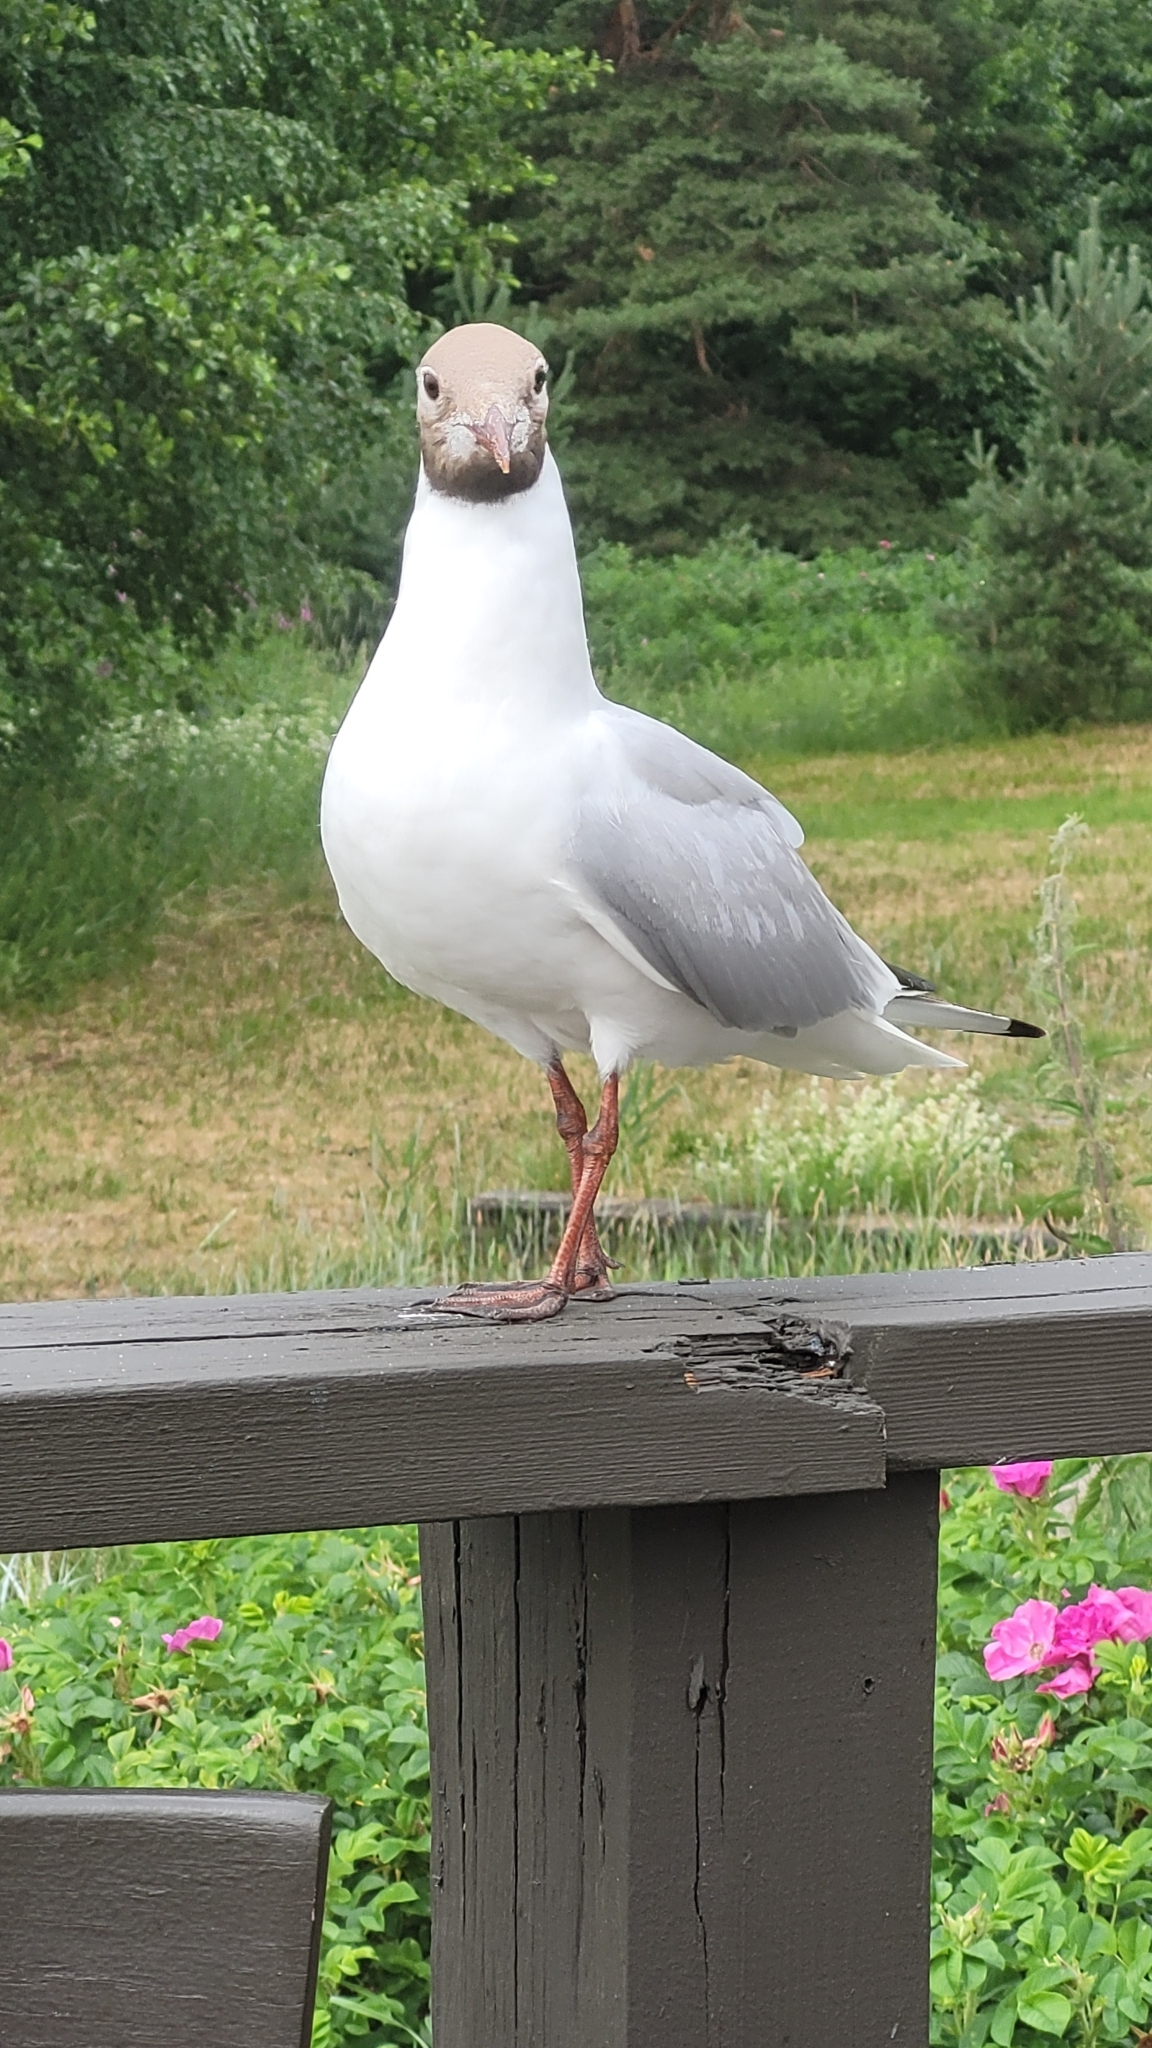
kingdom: Animalia
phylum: Chordata
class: Aves
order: Charadriiformes
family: Laridae
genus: Chroicocephalus
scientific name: Chroicocephalus ridibundus
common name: Black-headed gull
